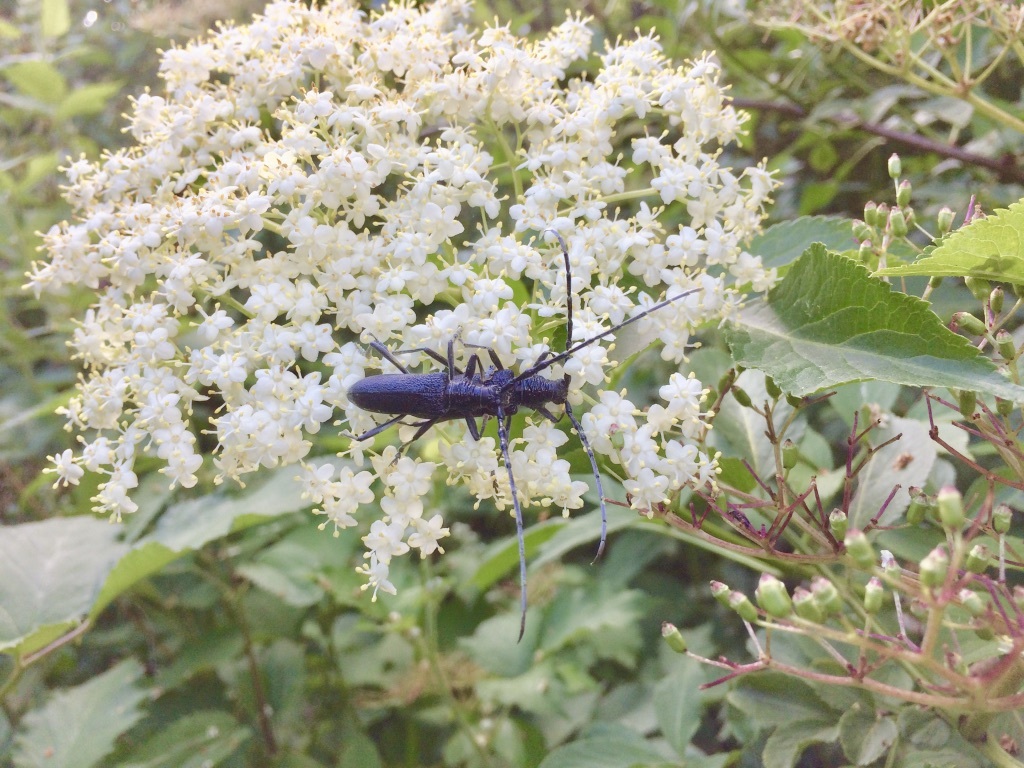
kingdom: Animalia
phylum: Arthropoda
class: Insecta
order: Coleoptera
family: Cerambycidae
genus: Cerambyx
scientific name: Cerambyx scopolii
